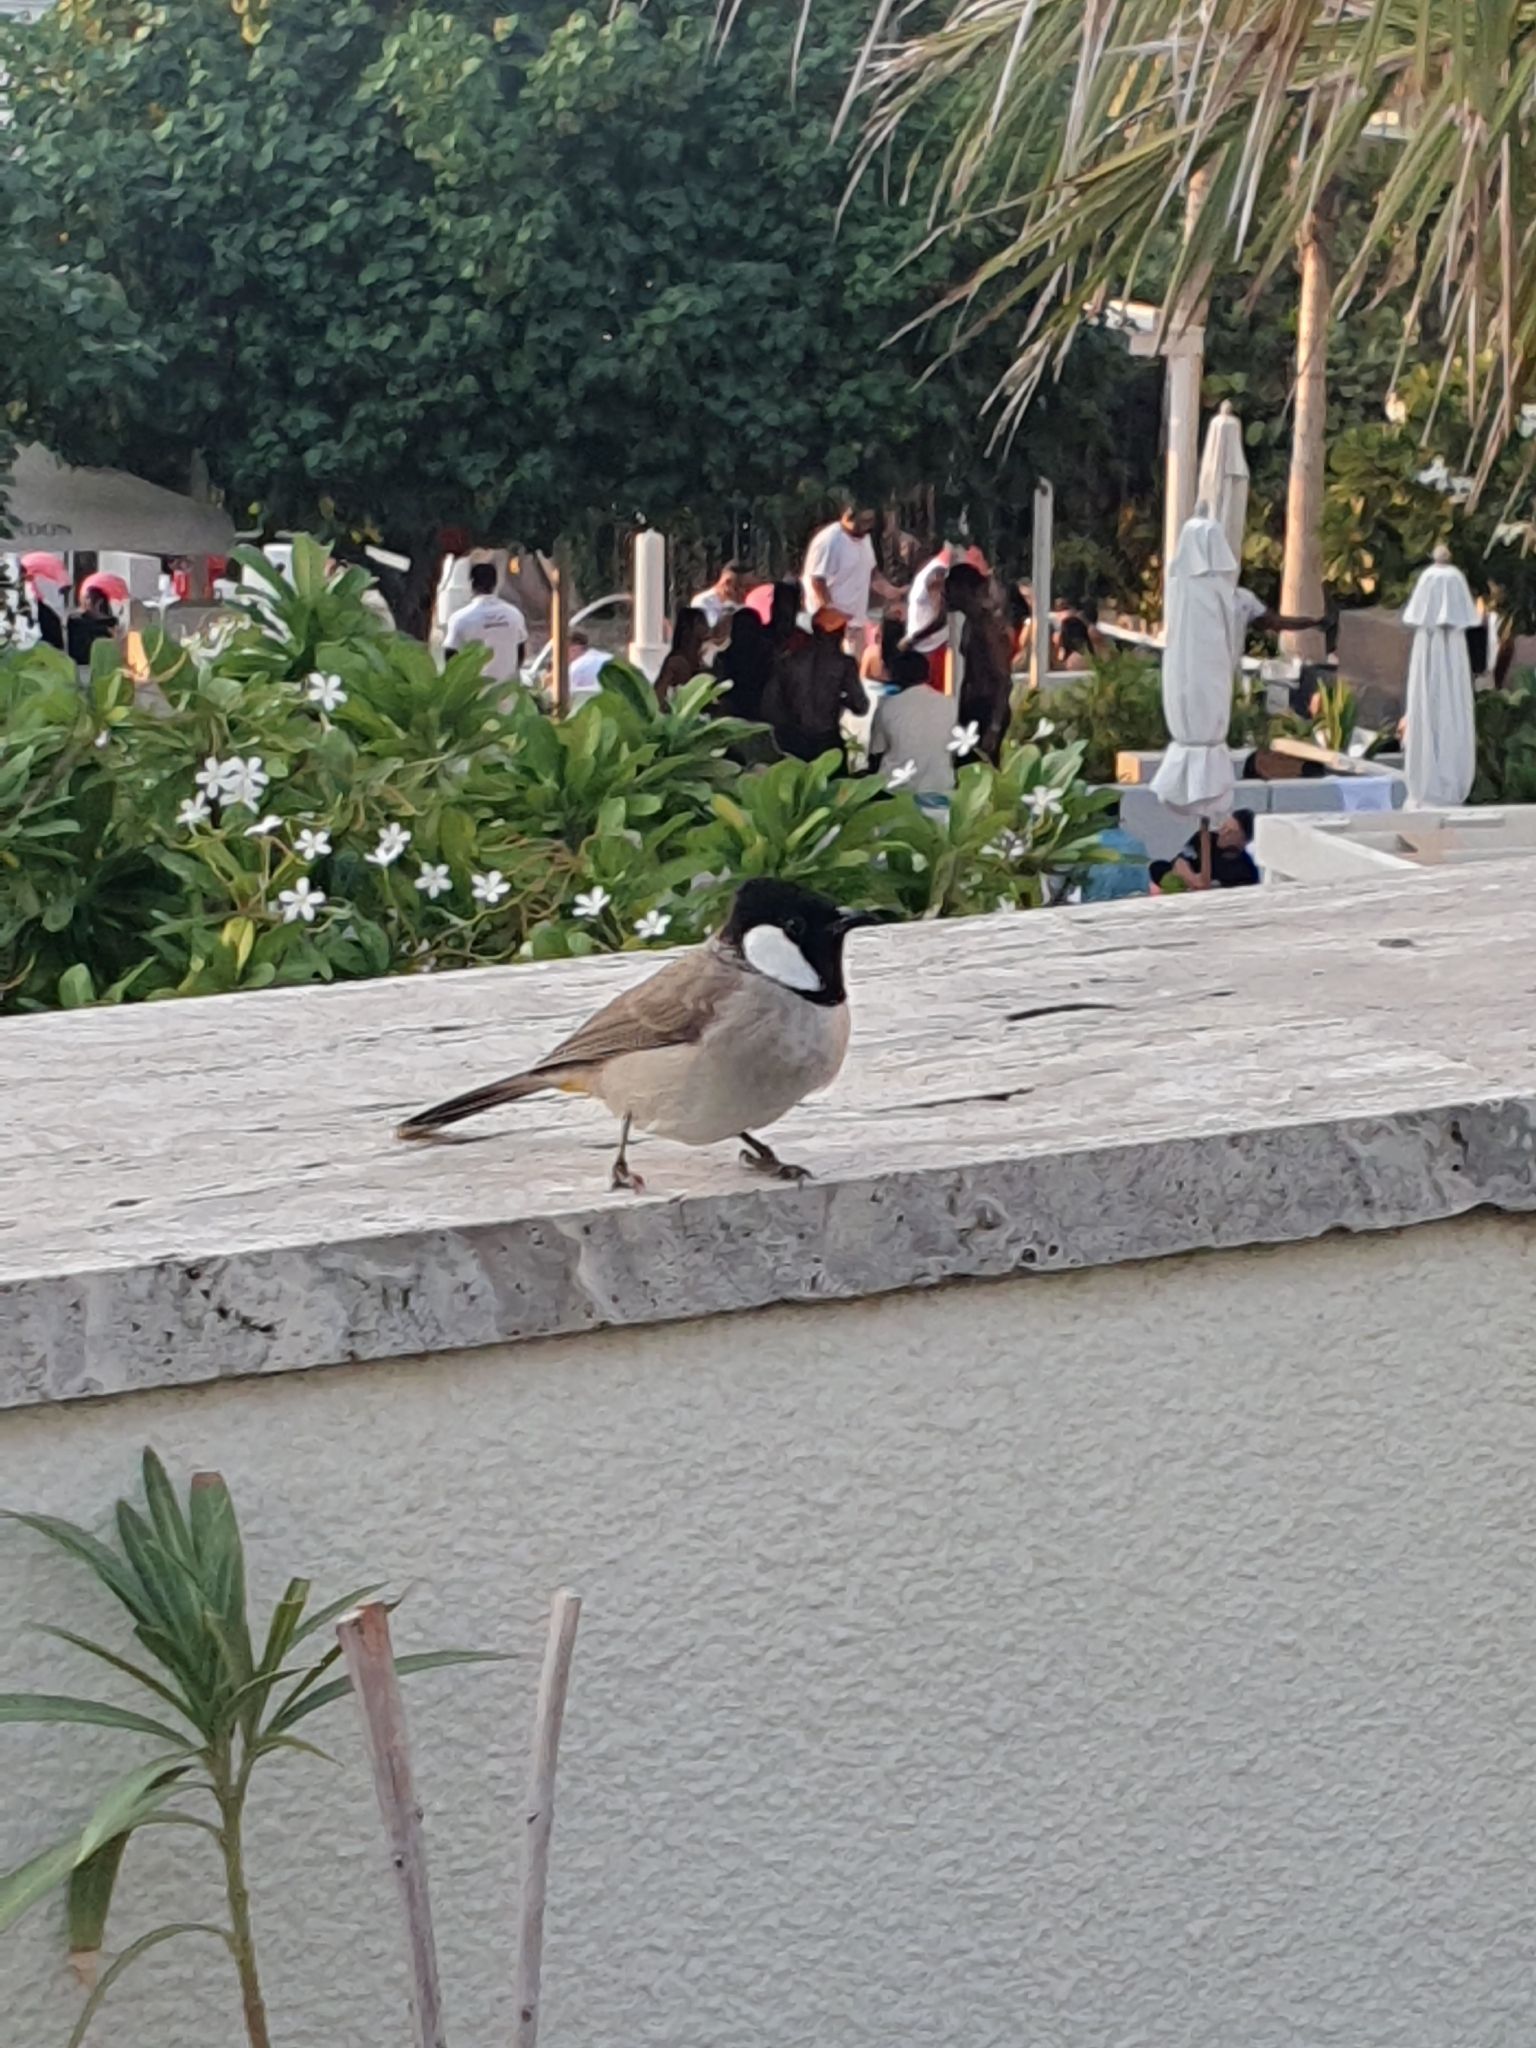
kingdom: Animalia
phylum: Chordata
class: Aves
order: Passeriformes
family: Pycnonotidae
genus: Pycnonotus
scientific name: Pycnonotus leucotis
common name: White-eared bulbul
